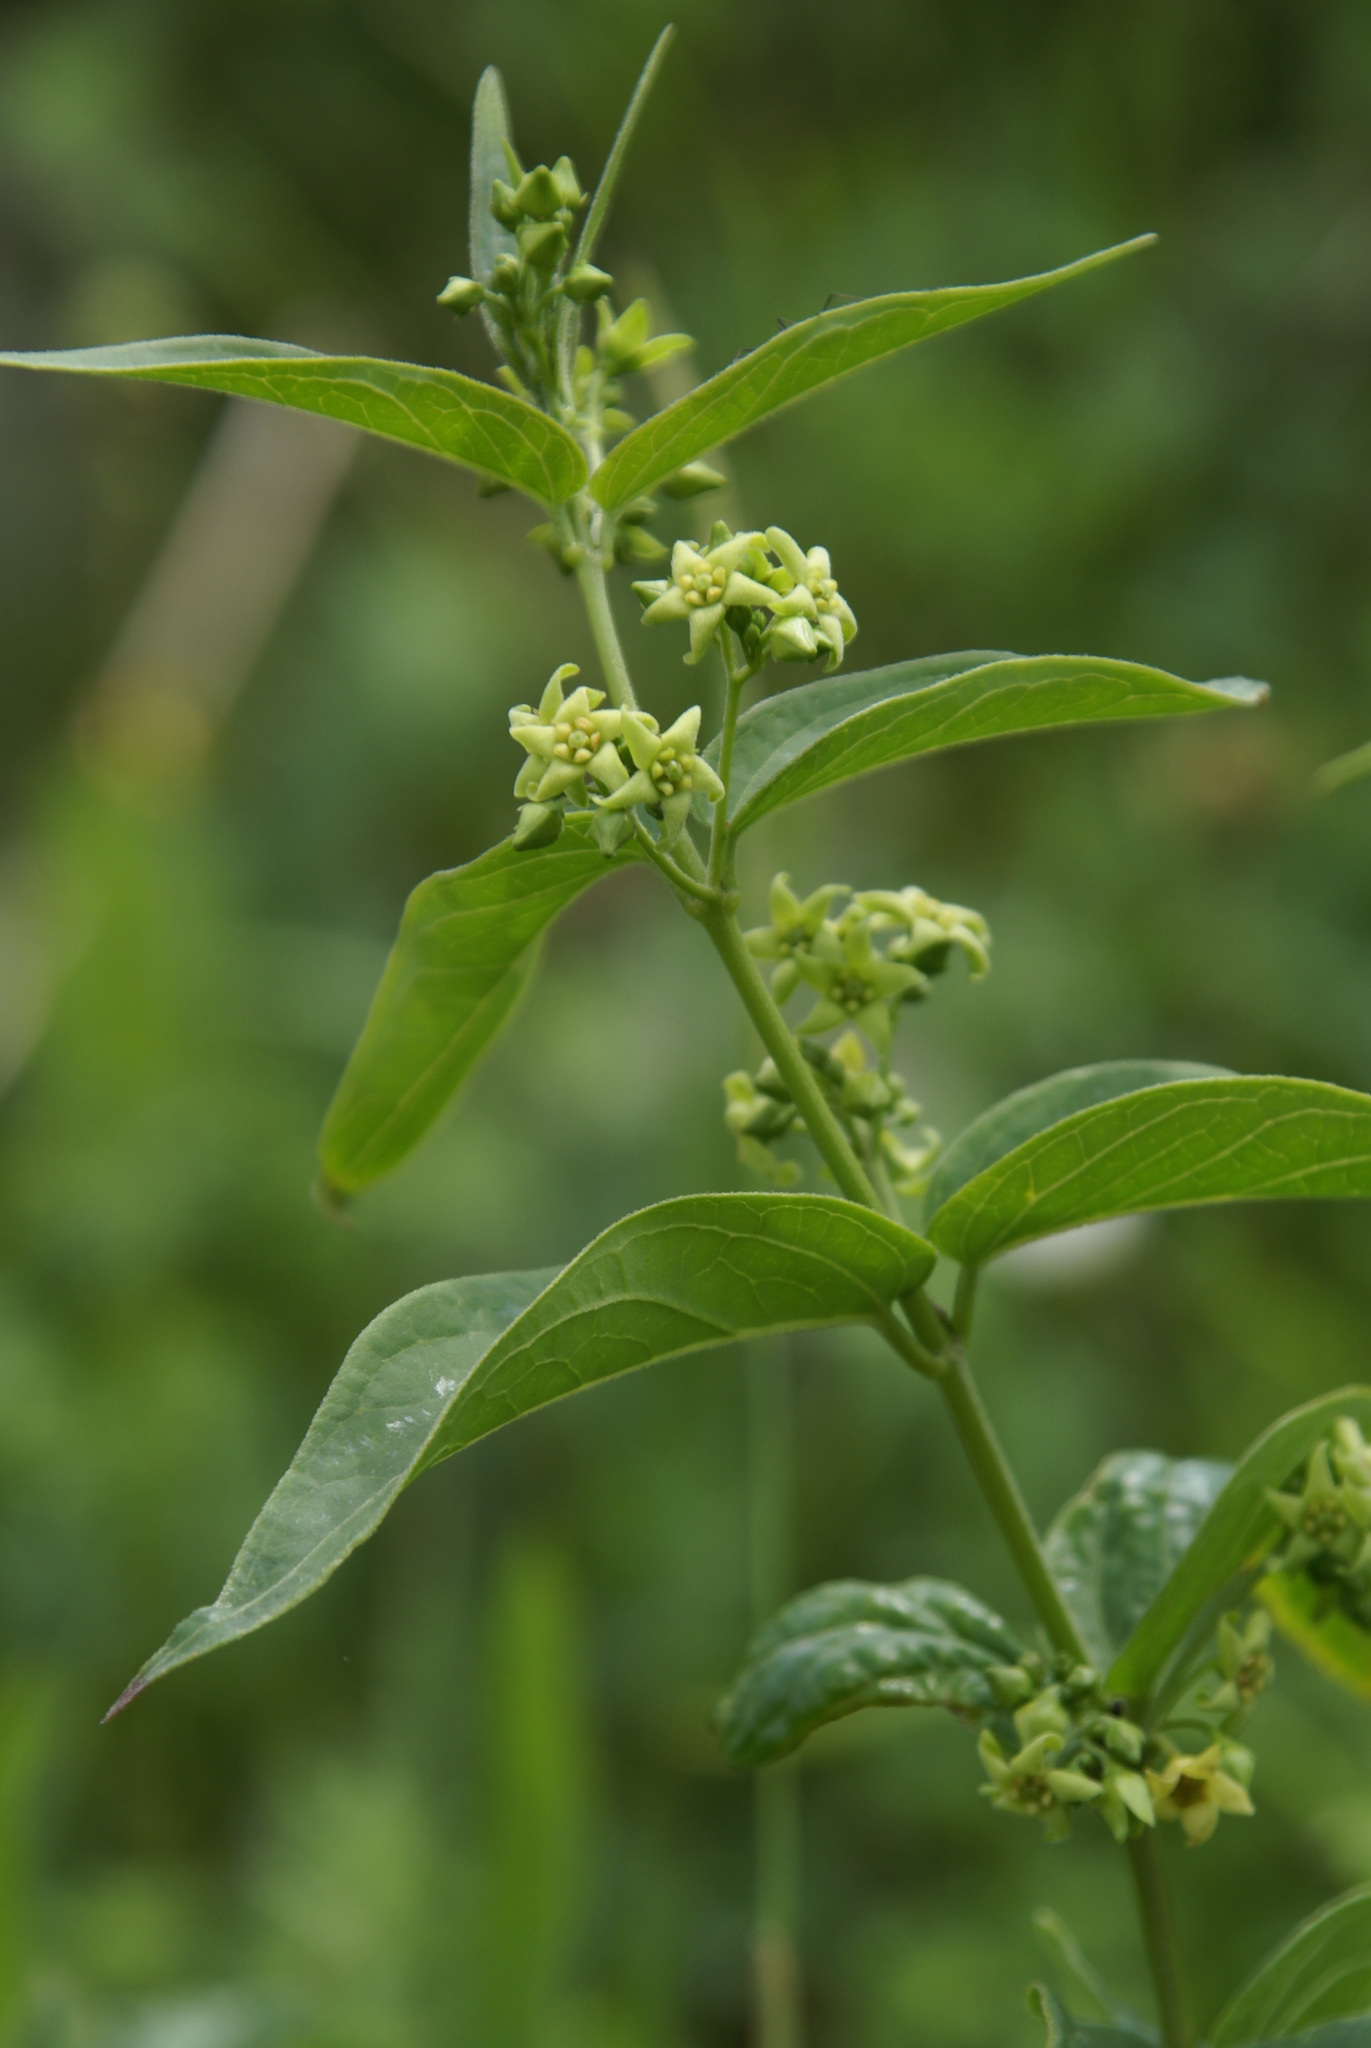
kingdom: Plantae
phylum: Tracheophyta
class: Magnoliopsida
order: Gentianales
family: Apocynaceae
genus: Vincetoxicum
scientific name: Vincetoxicum hirundinaria
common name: White swallowwort
